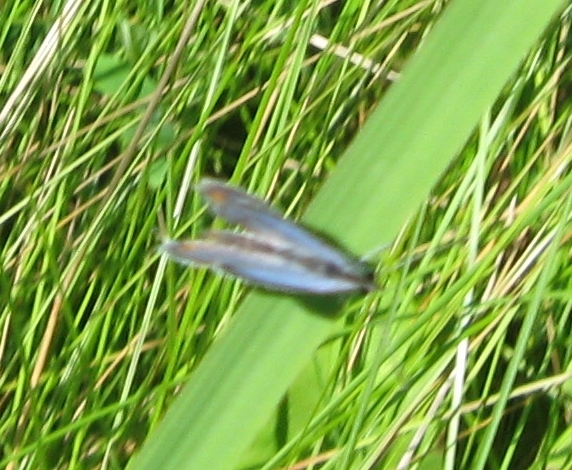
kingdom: Animalia
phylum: Arthropoda
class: Insecta
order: Lepidoptera
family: Lycaenidae
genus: Elkalyce
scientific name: Elkalyce comyntas
